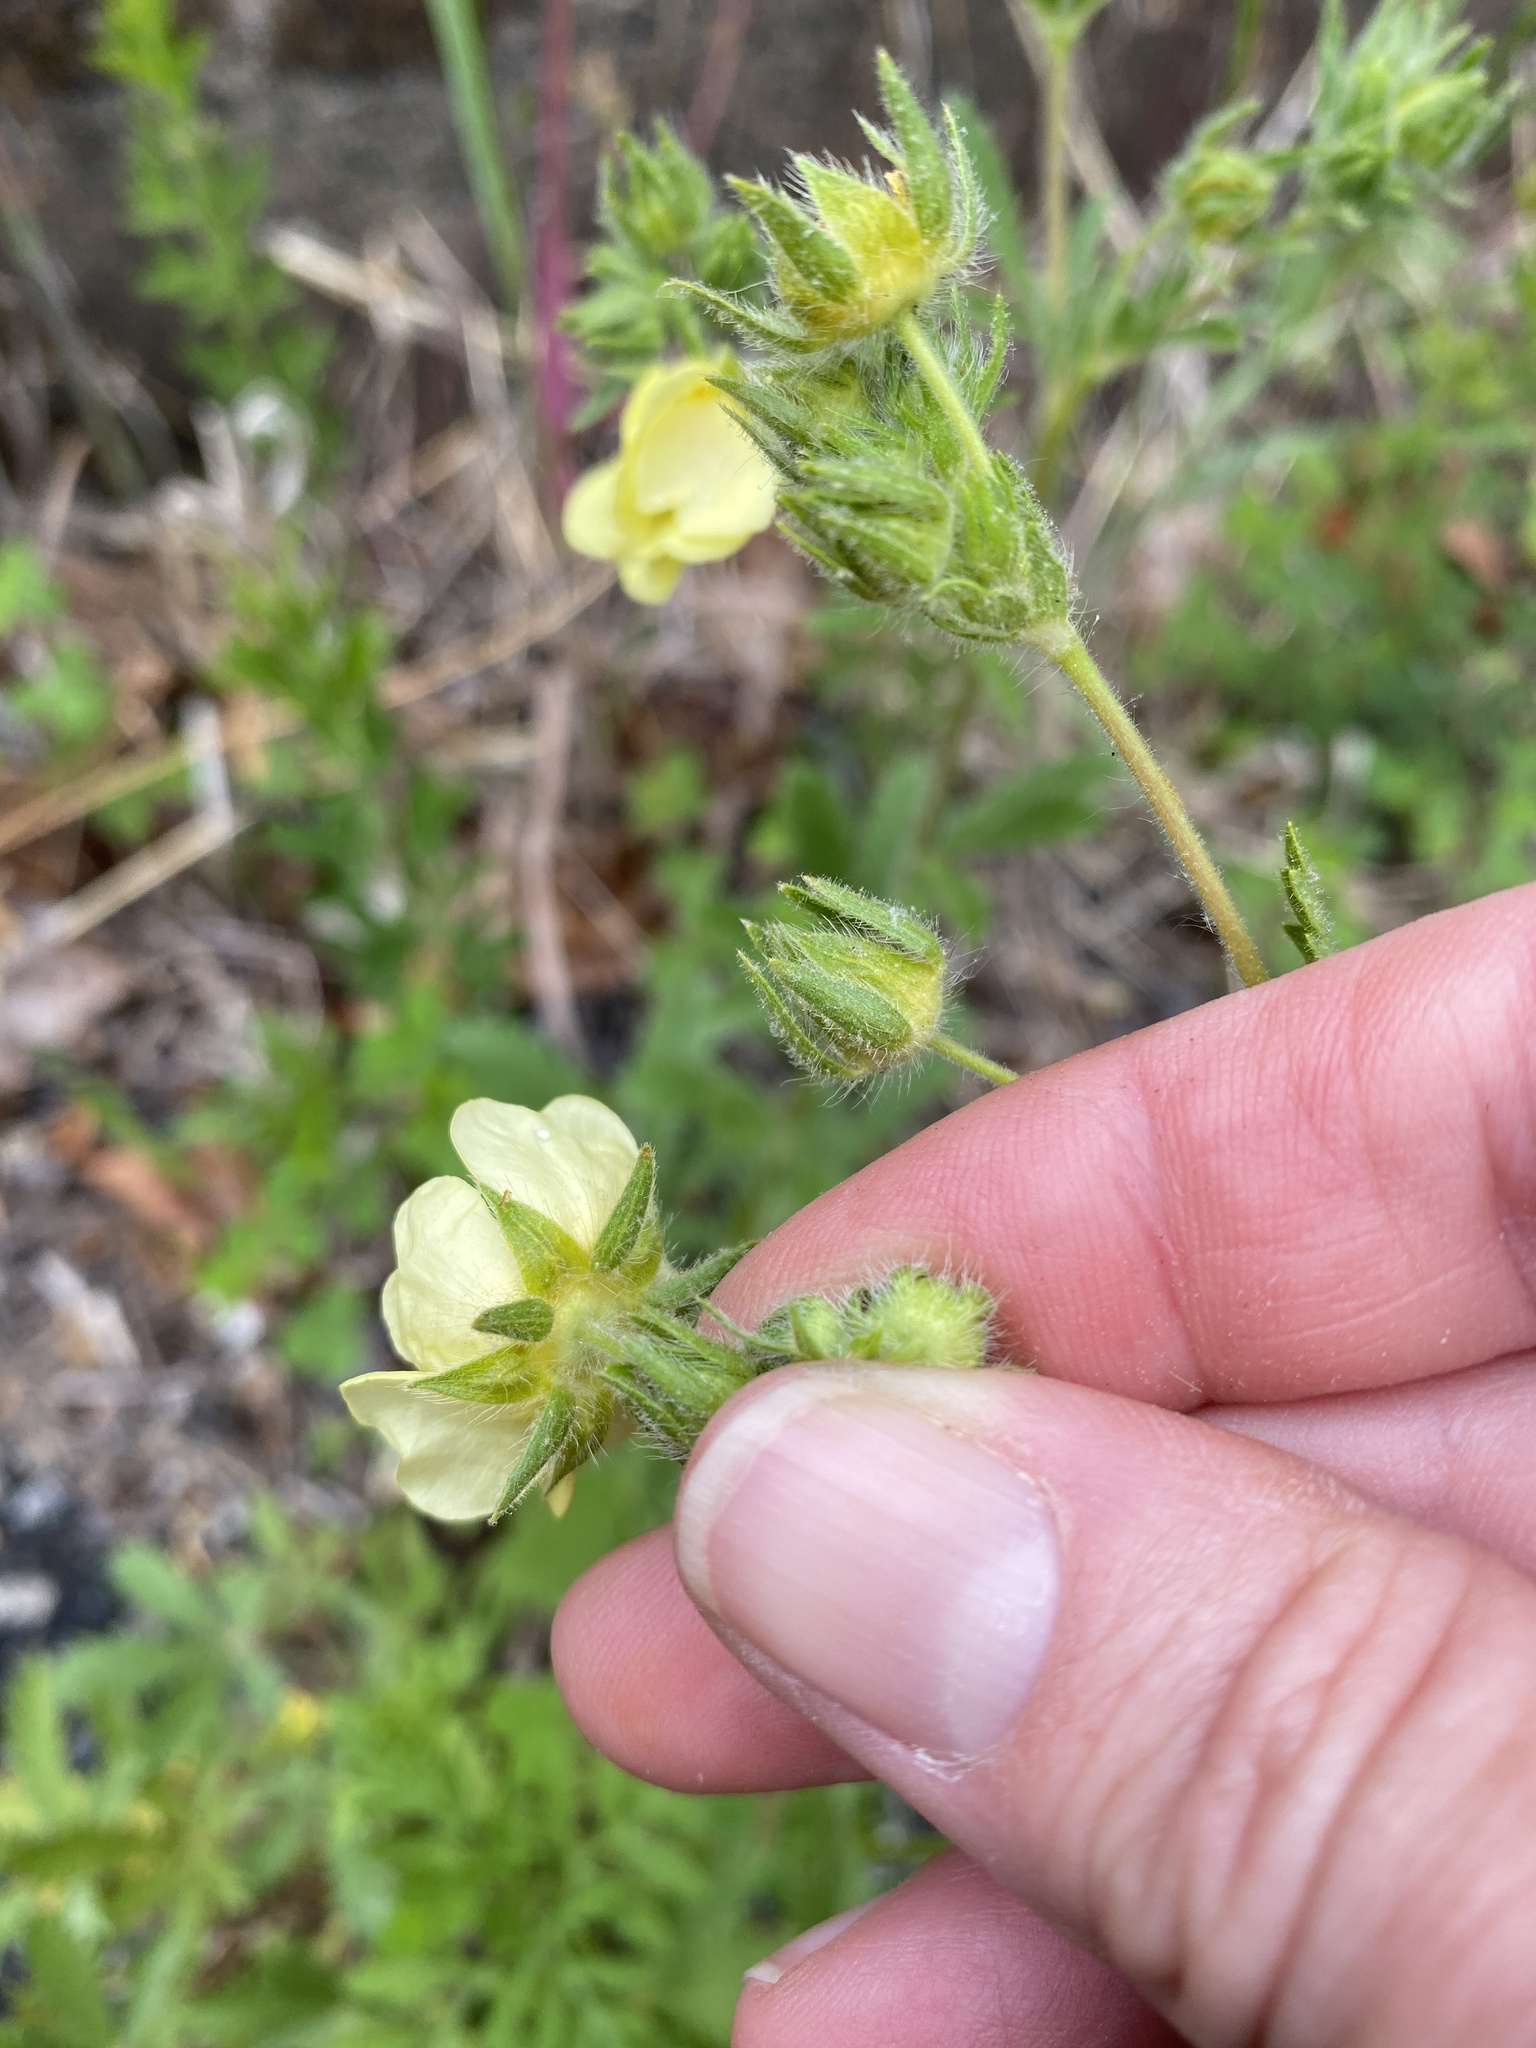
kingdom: Plantae
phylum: Tracheophyta
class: Magnoliopsida
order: Rosales
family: Rosaceae
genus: Potentilla
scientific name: Potentilla recta
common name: Sulphur cinquefoil
